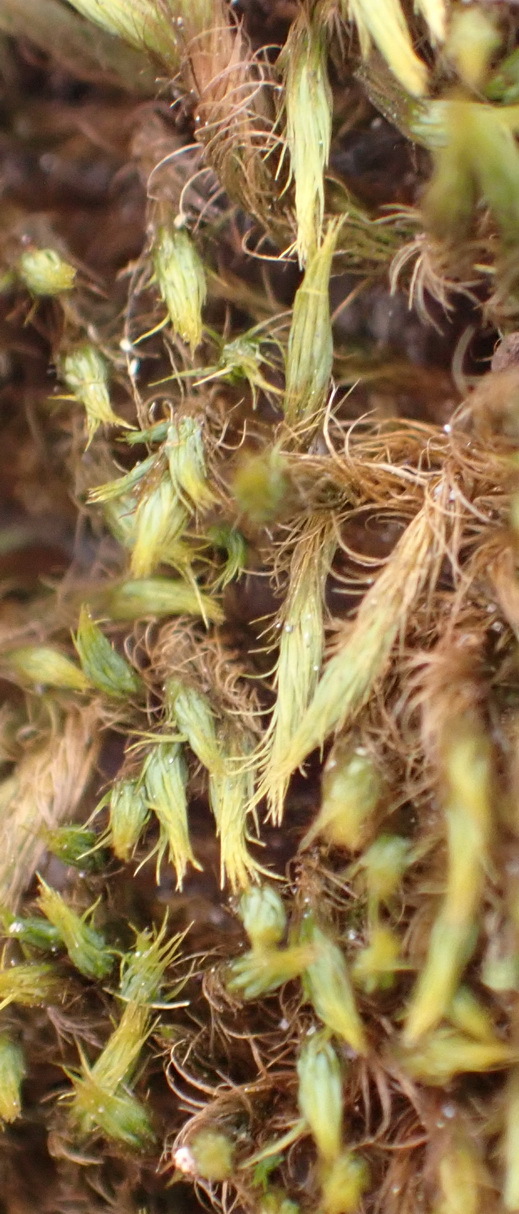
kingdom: Plantae
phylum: Bryophyta
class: Bryopsida
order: Bartramiales
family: Bartramiaceae
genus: Anacolia
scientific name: Anacolia breutelii
